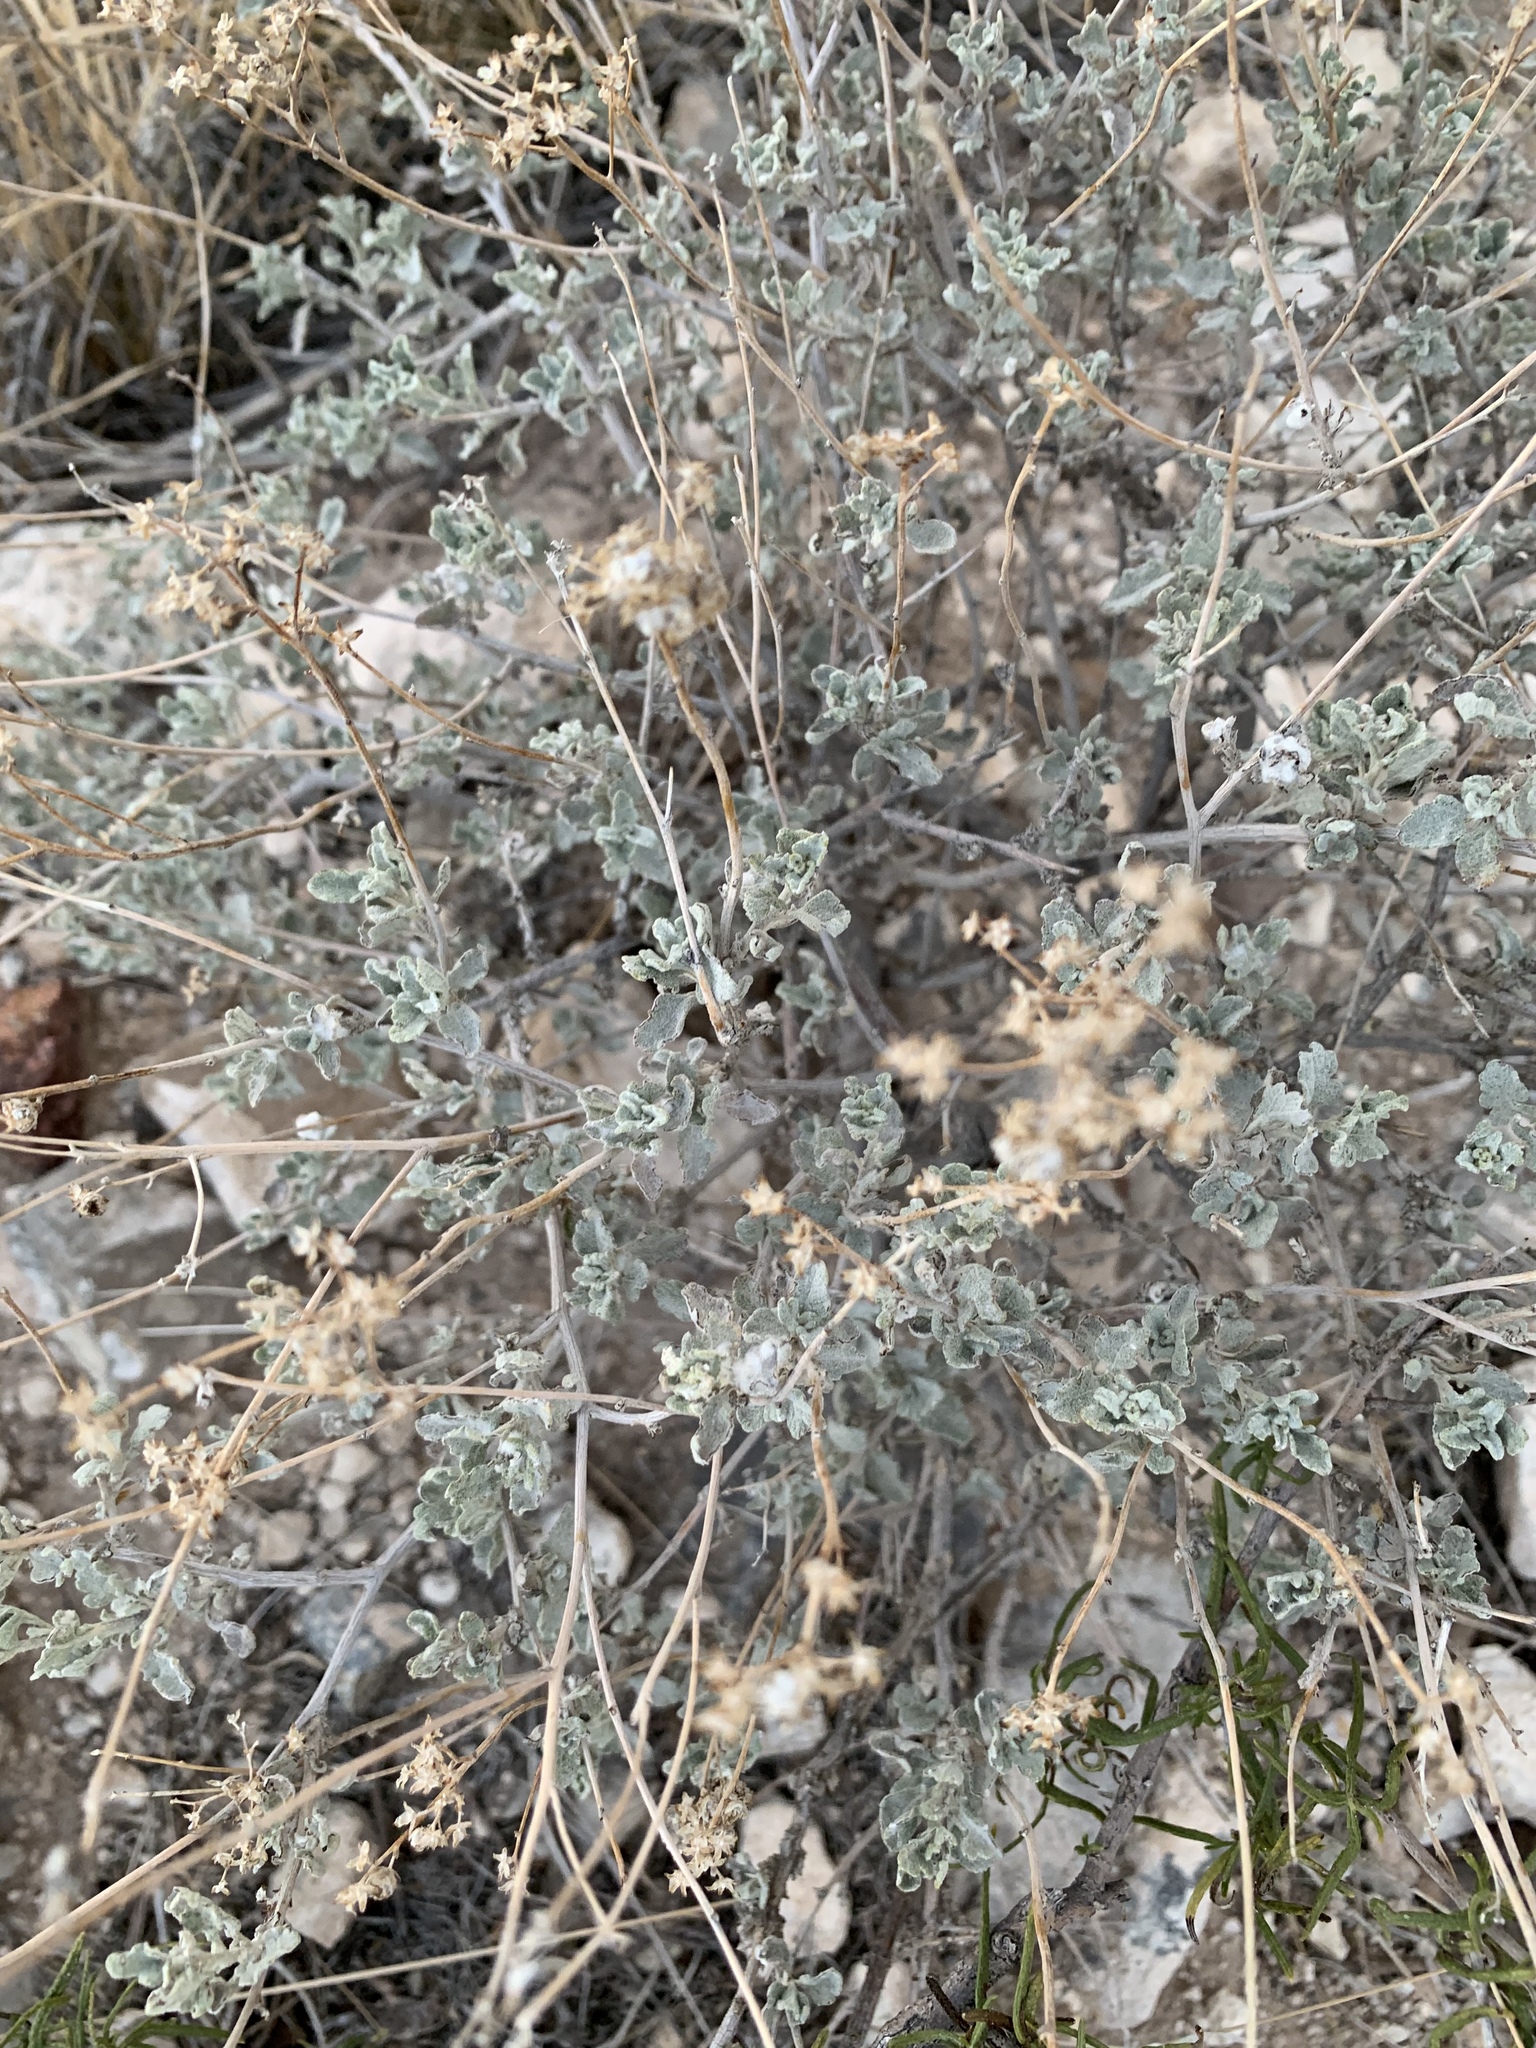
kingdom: Plantae
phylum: Tracheophyta
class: Magnoliopsida
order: Asterales
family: Asteraceae
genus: Parthenium
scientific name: Parthenium incanum
